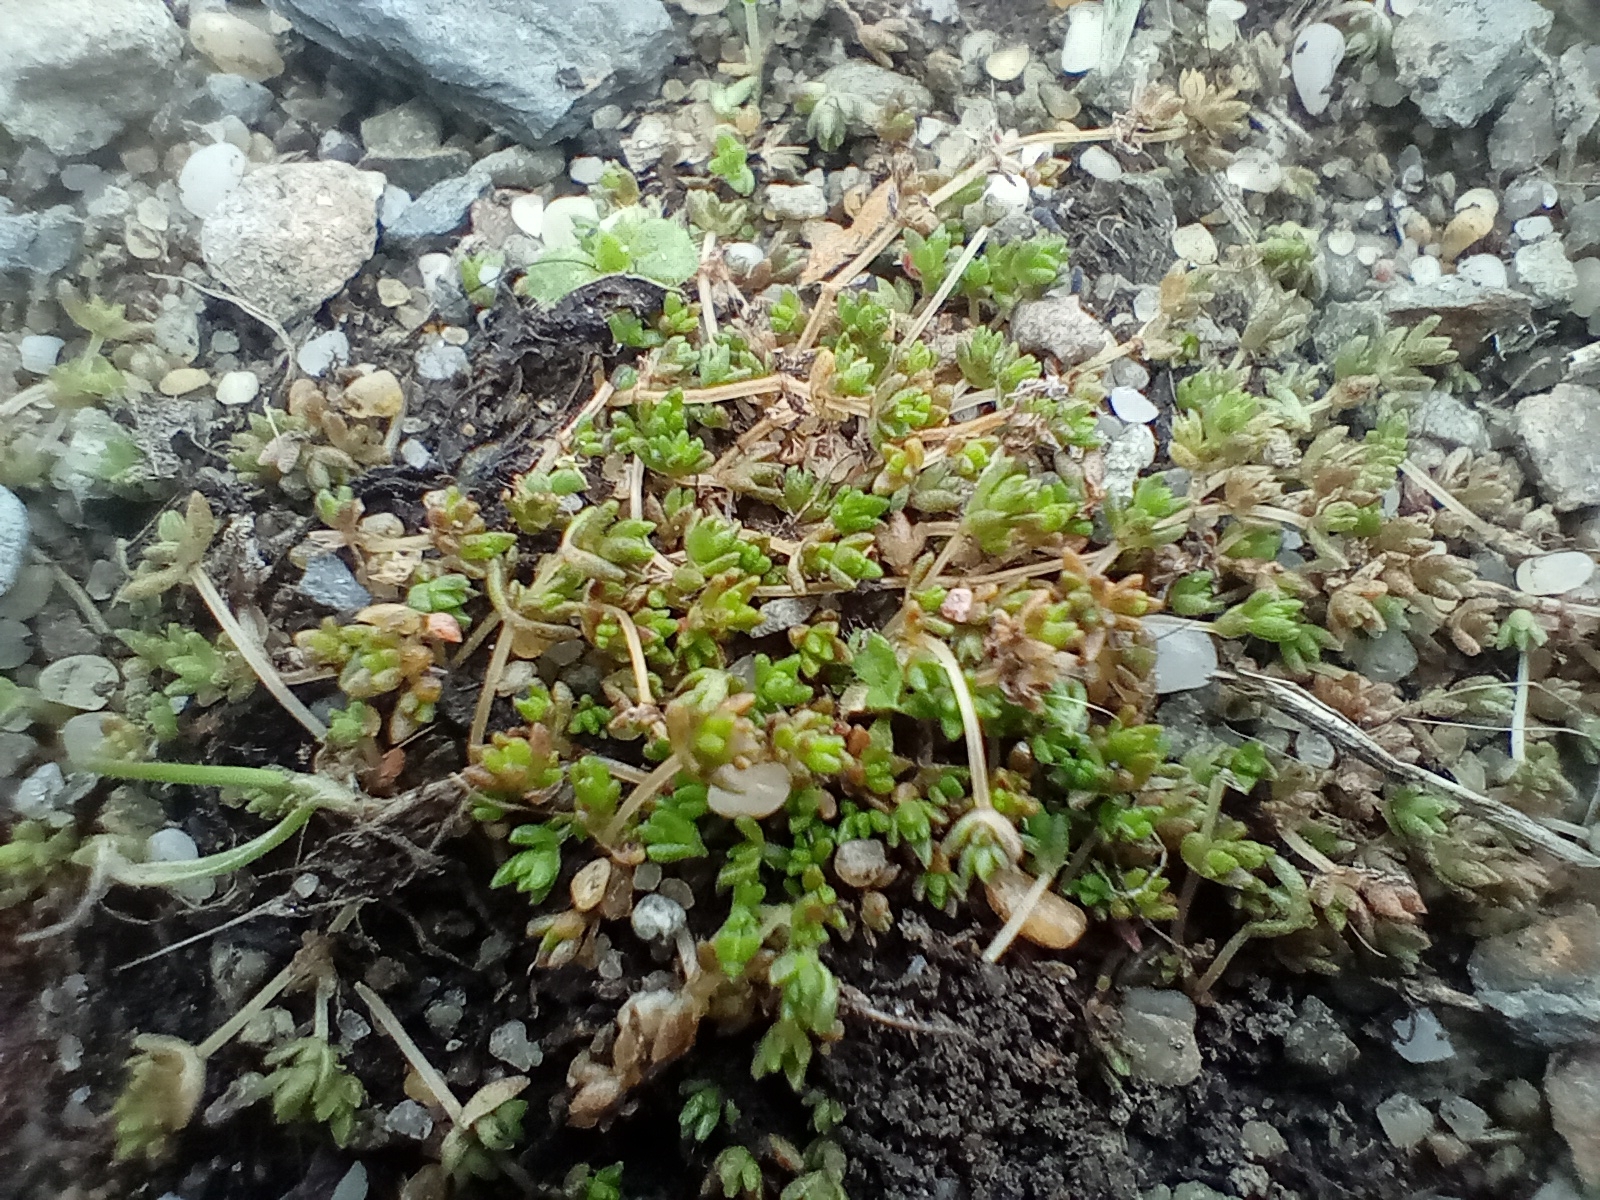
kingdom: Plantae
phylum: Tracheophyta
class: Magnoliopsida
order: Saxifragales
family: Crassulaceae
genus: Crassula
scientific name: Crassula mataikona
